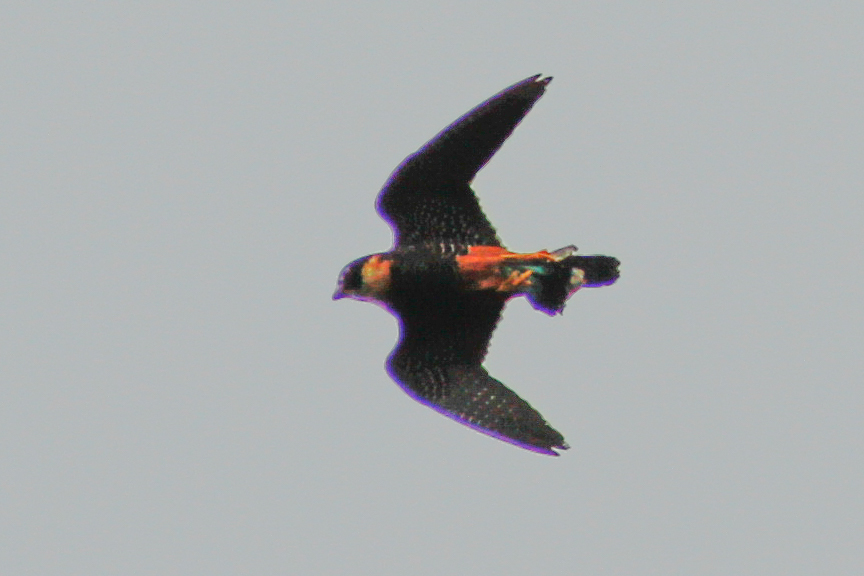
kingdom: Animalia
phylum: Chordata
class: Aves
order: Falconiformes
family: Falconidae
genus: Falco
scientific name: Falco rufigularis
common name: Bat falcon
